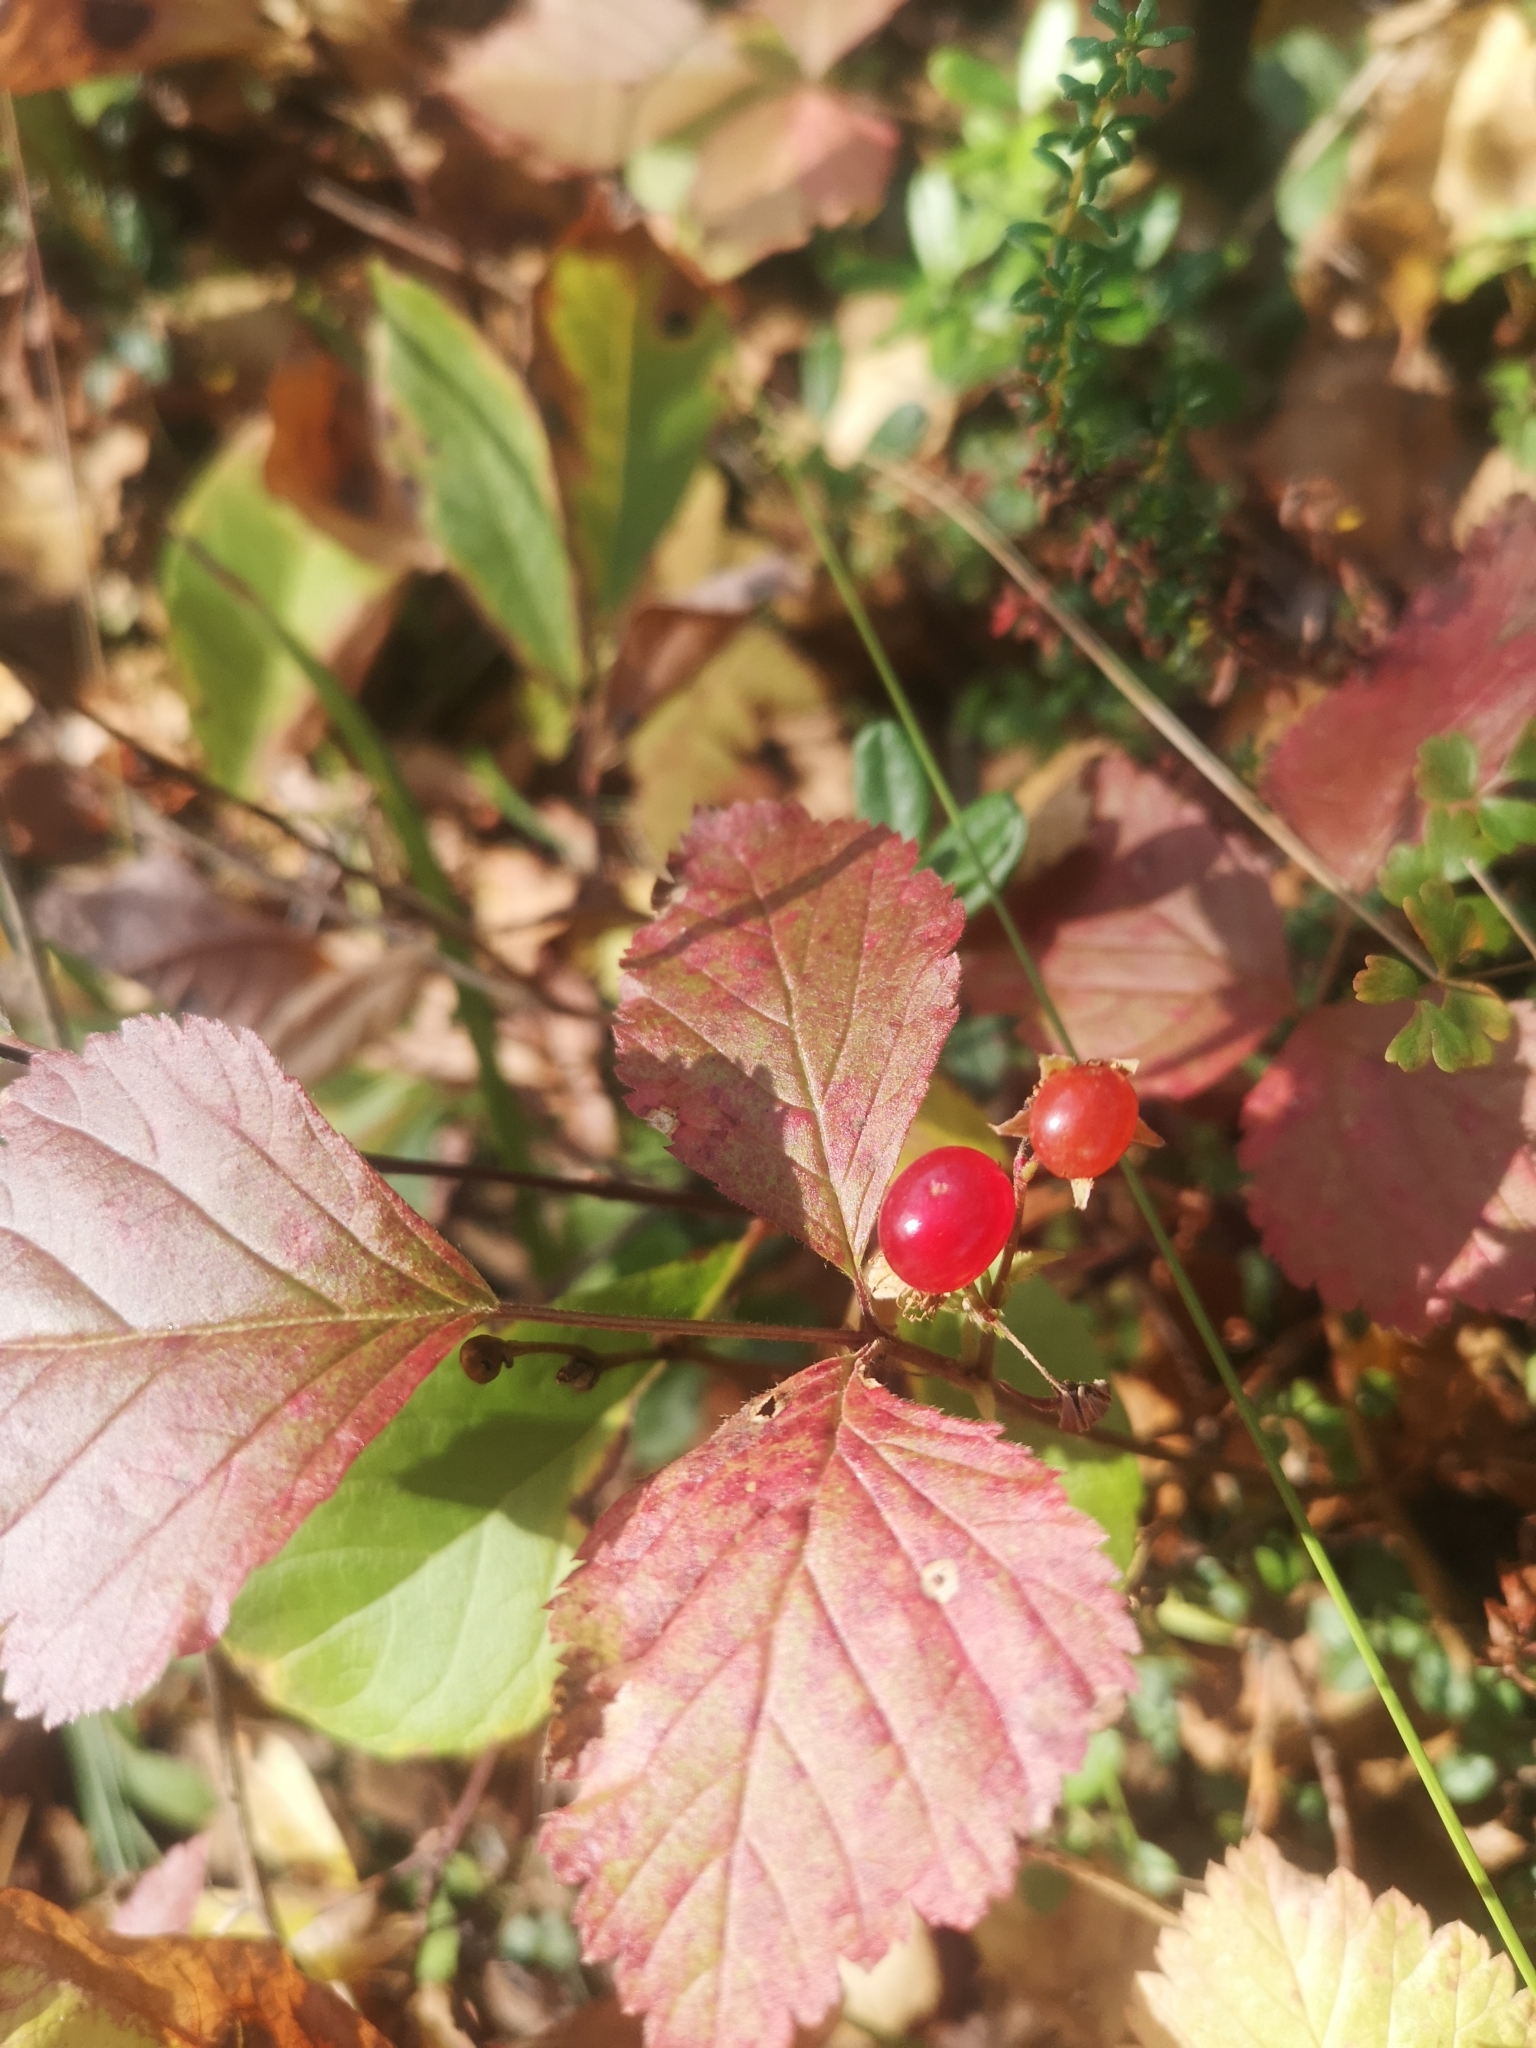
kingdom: Plantae
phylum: Tracheophyta
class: Magnoliopsida
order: Rosales
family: Rosaceae
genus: Rubus
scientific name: Rubus saxatilis
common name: Stone bramble
